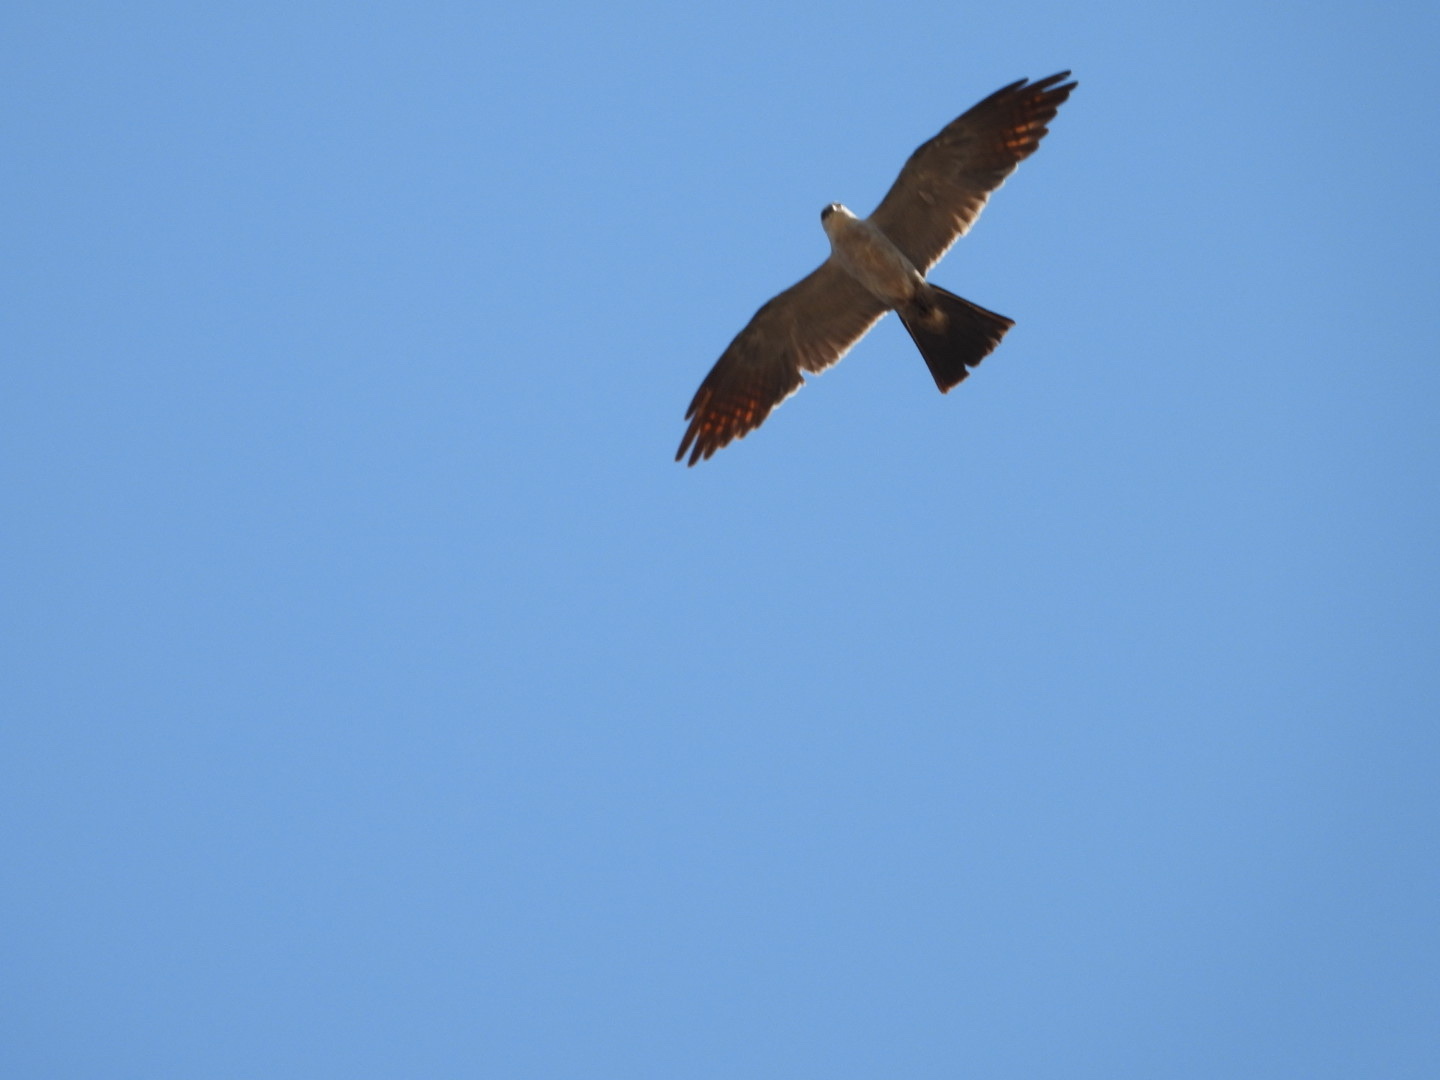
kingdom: Animalia
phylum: Chordata
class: Aves
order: Accipitriformes
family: Accipitridae
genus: Ictinia
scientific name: Ictinia mississippiensis
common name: Mississippi kite
